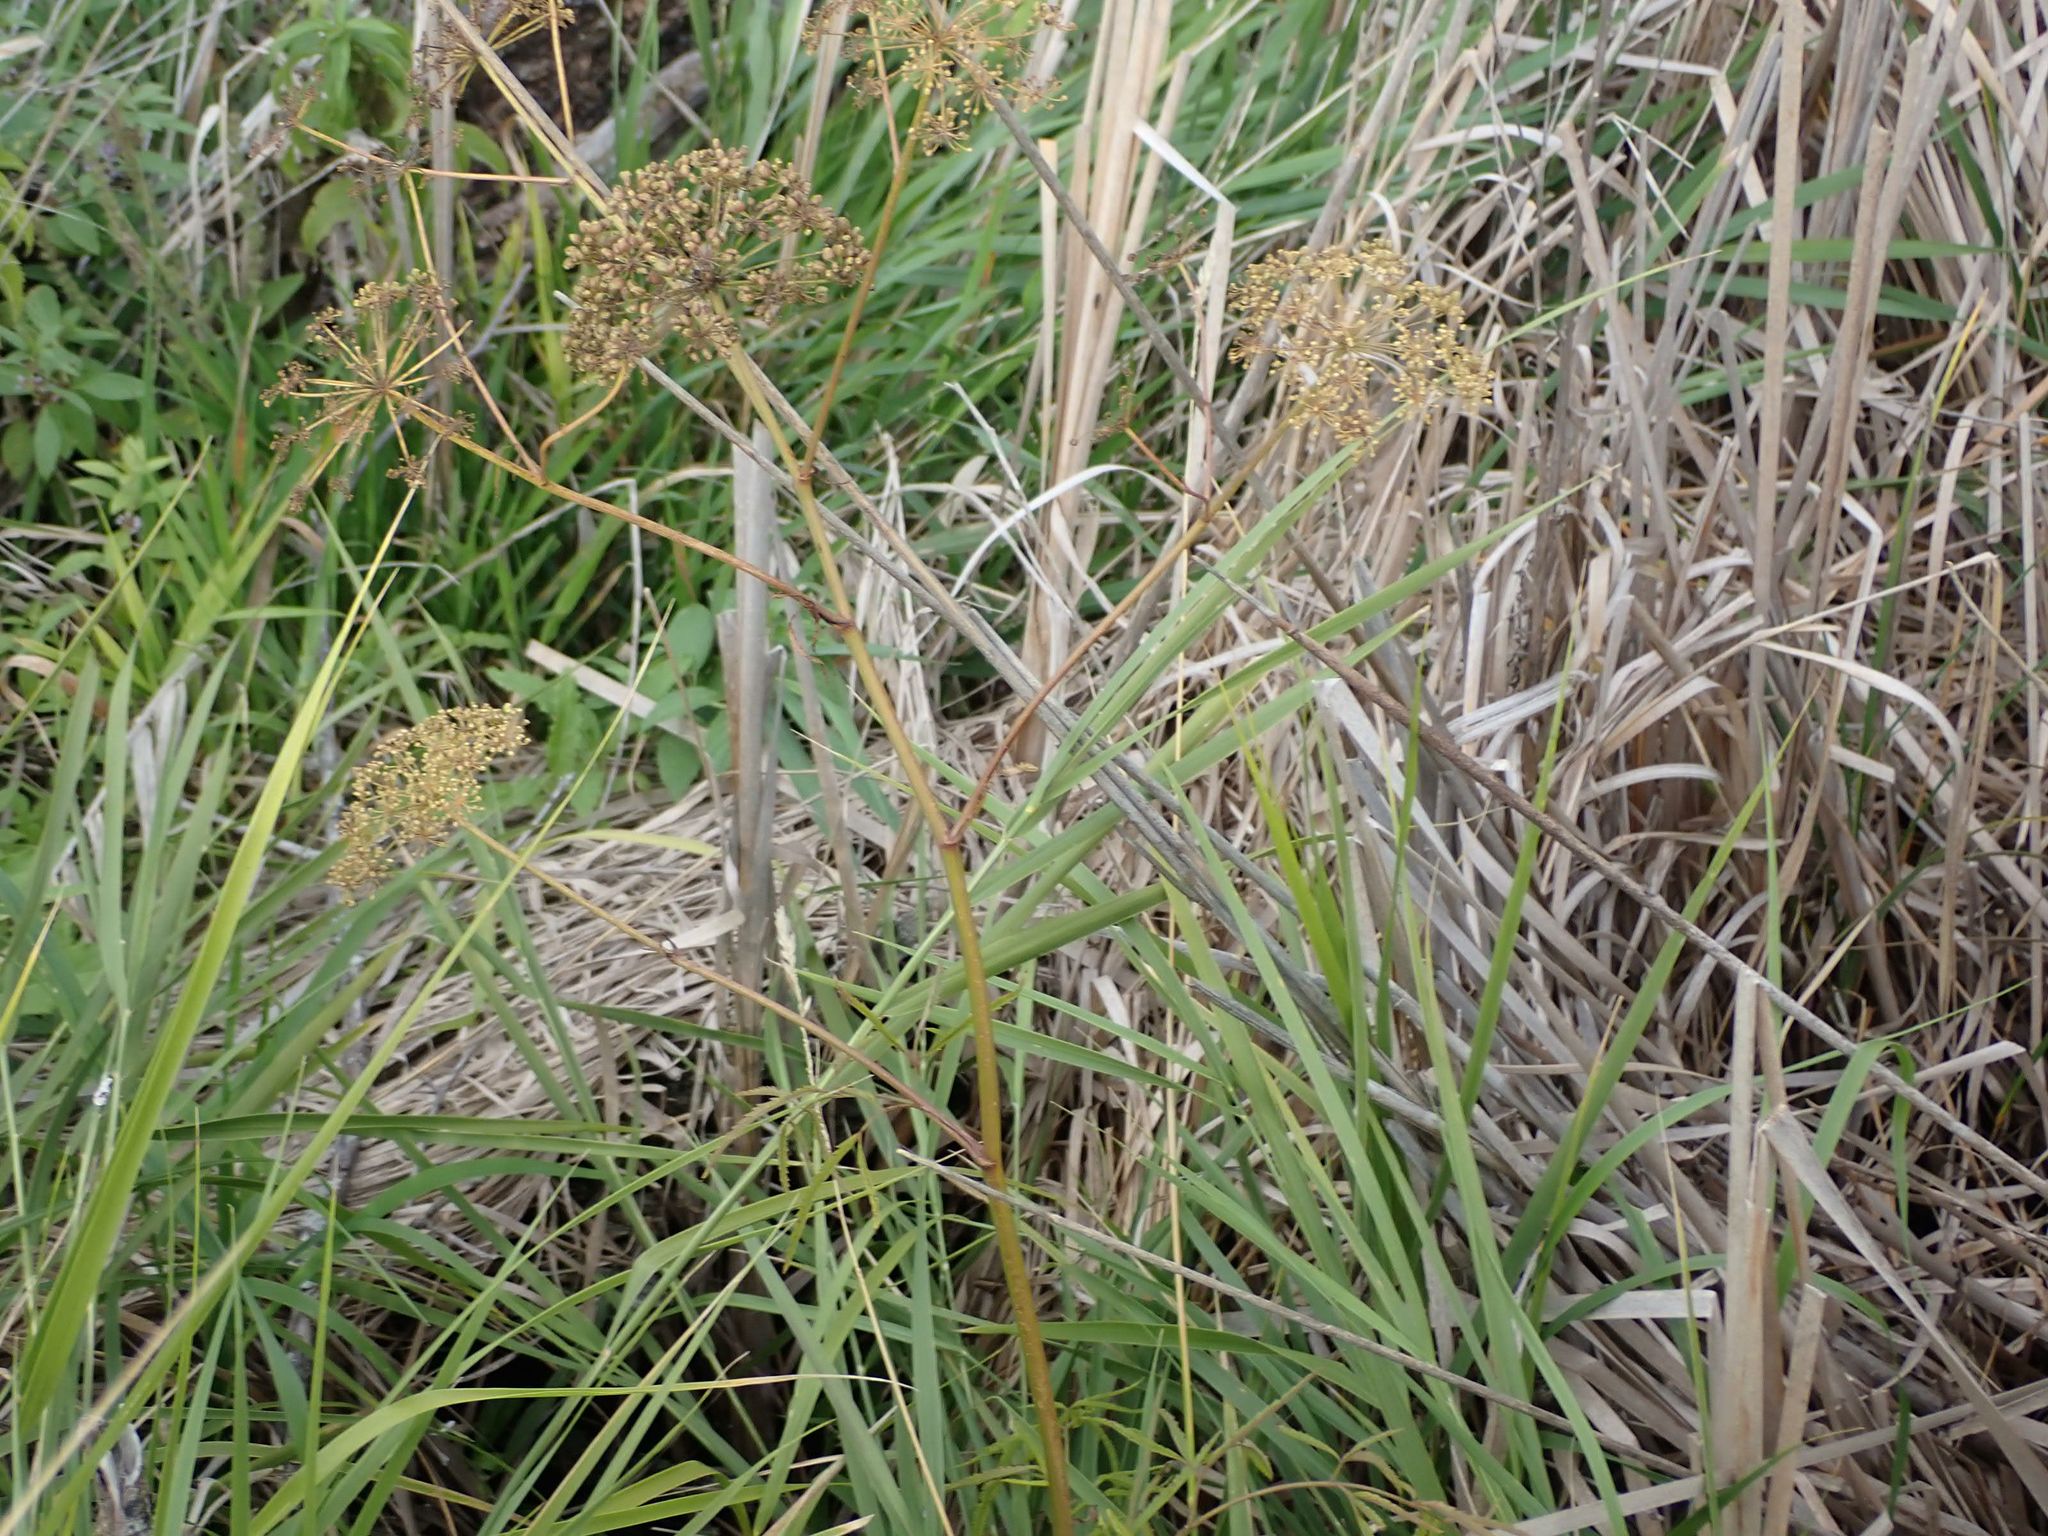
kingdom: Plantae
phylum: Tracheophyta
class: Magnoliopsida
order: Apiales
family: Apiaceae
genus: Sium
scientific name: Sium suave
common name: Hemlock water-parsnip
